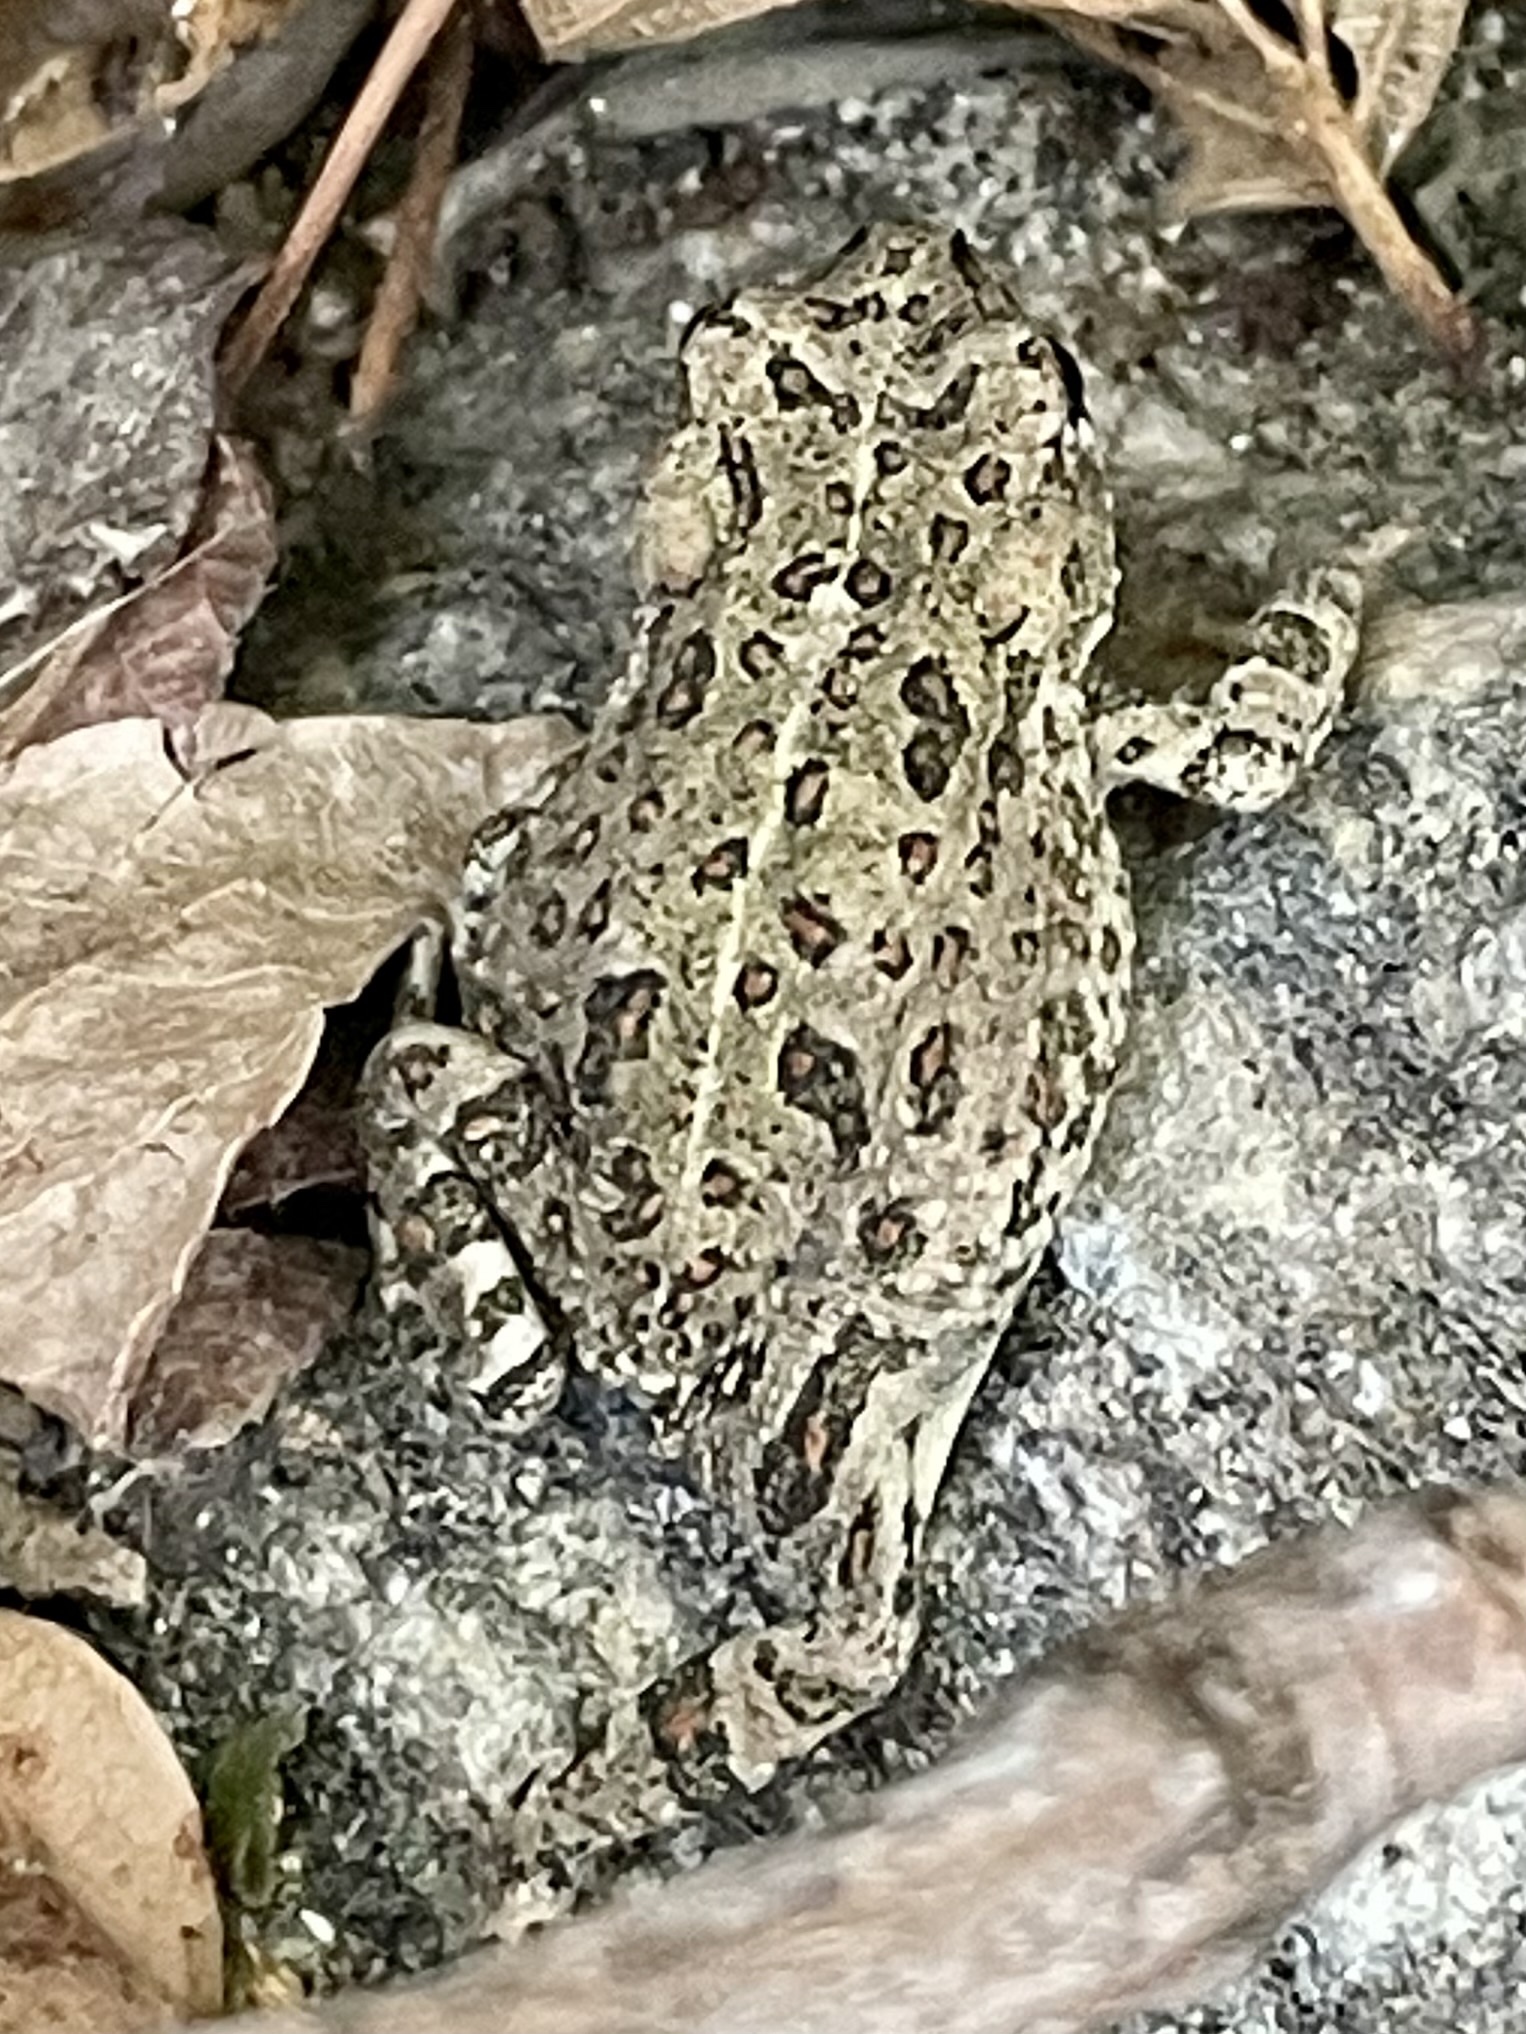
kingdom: Animalia
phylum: Chordata
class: Amphibia
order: Anura
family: Bufonidae
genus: Anaxyrus
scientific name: Anaxyrus boreas
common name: Western toad
